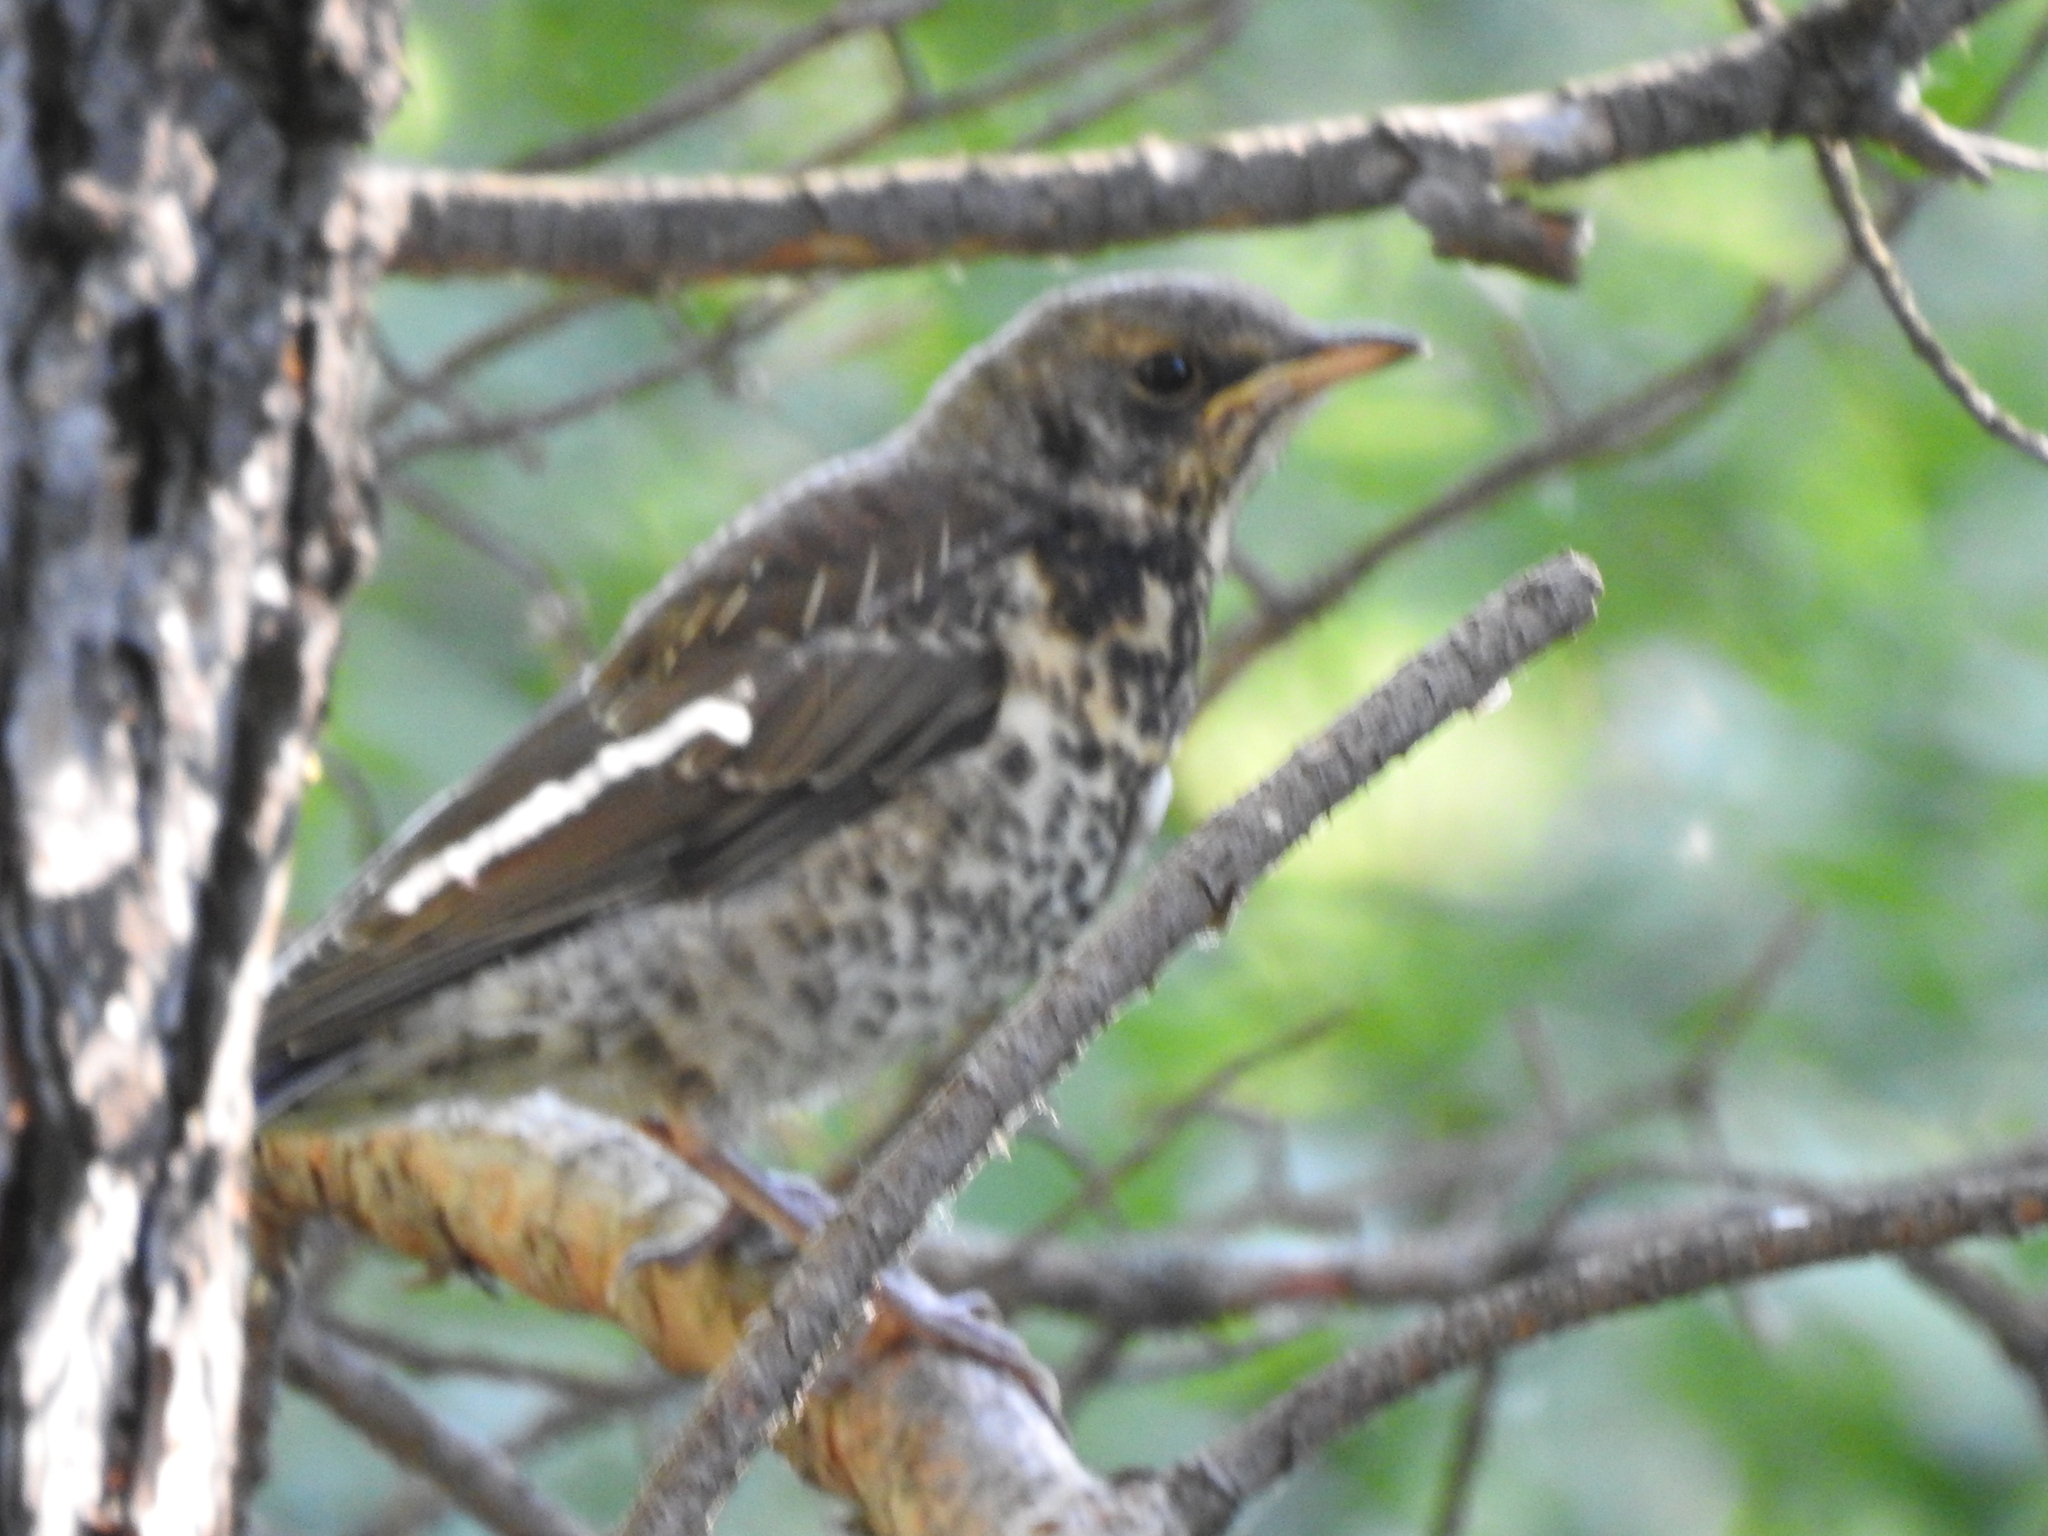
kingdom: Animalia
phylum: Chordata
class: Aves
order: Passeriformes
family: Turdidae
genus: Turdus
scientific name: Turdus pilaris
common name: Fieldfare
